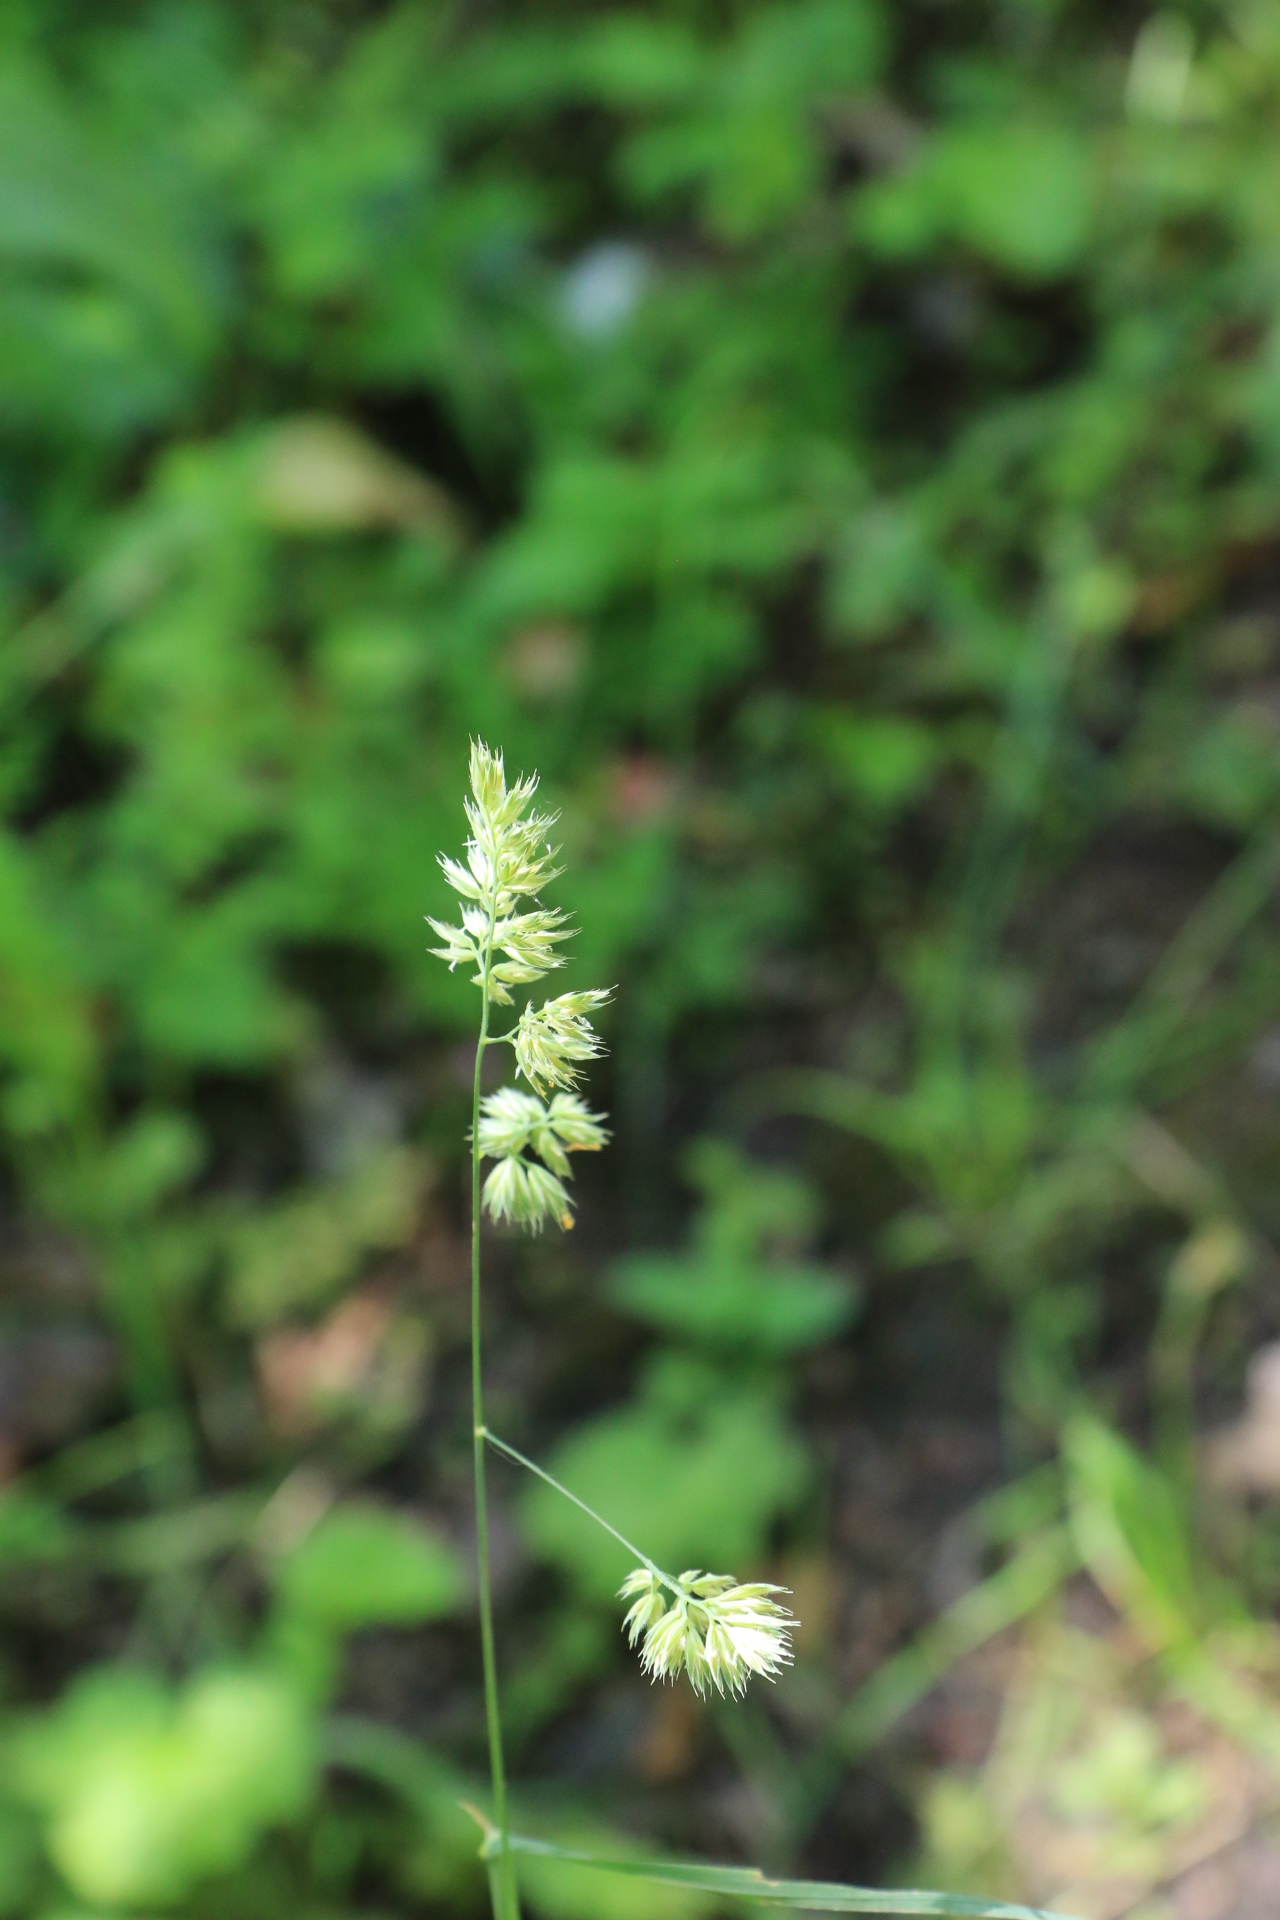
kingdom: Plantae
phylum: Tracheophyta
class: Liliopsida
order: Poales
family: Poaceae
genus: Dactylis
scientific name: Dactylis glomerata
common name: Orchardgrass
